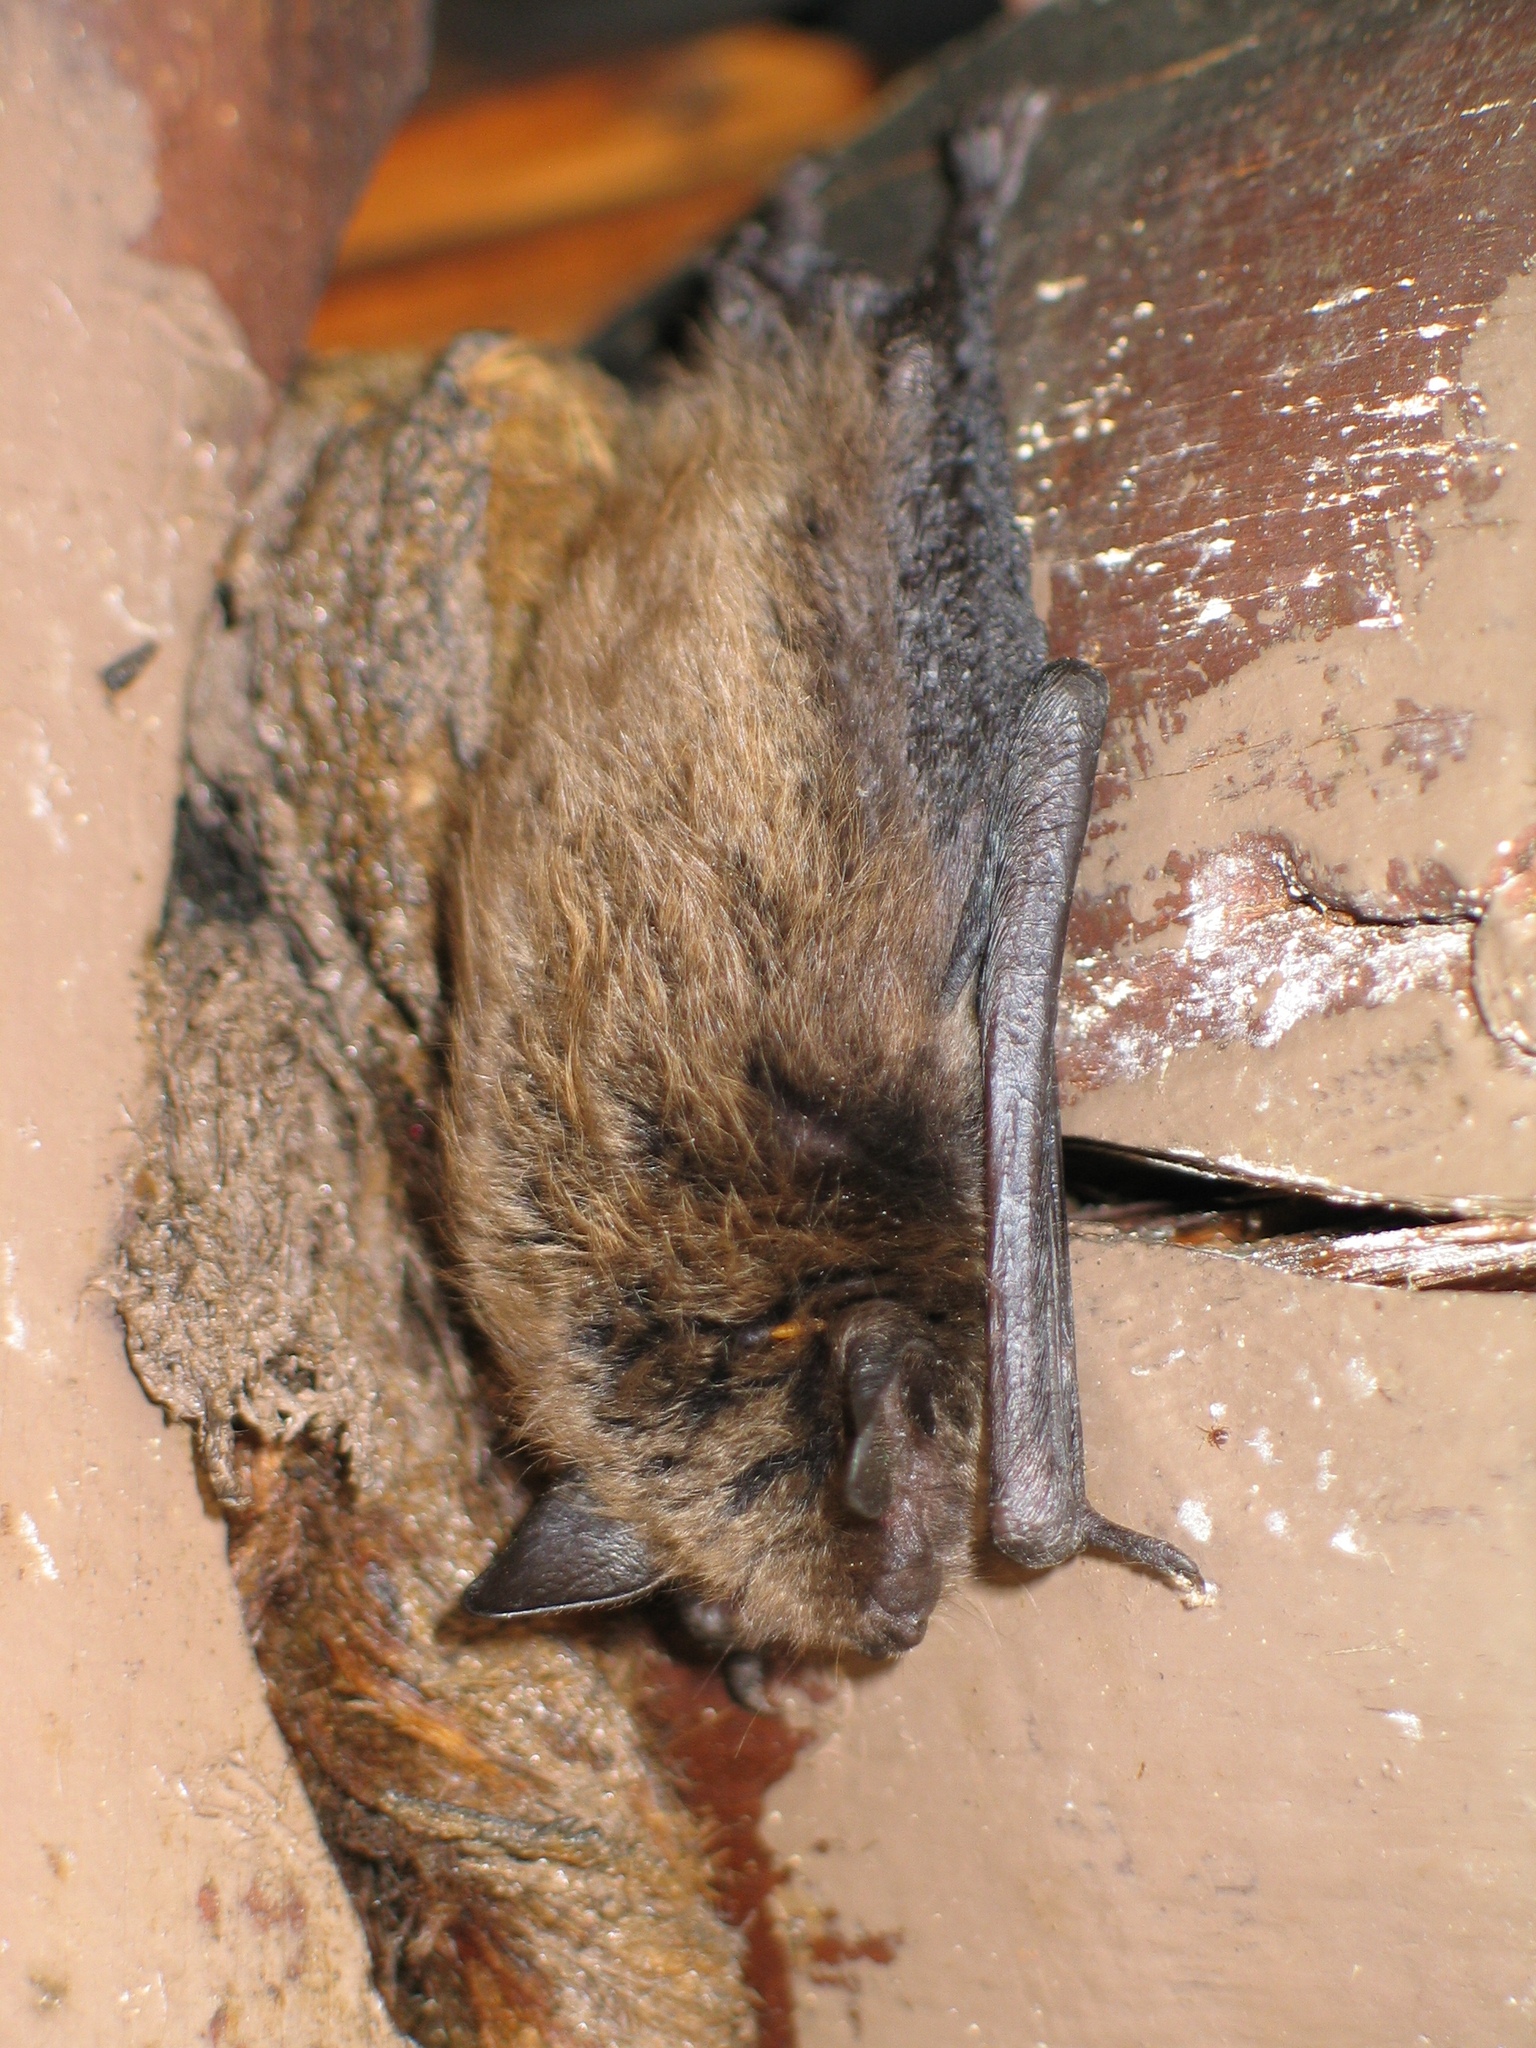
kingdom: Animalia
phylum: Chordata
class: Mammalia
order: Chiroptera
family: Vespertilionidae
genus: Myotis
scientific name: Myotis lucifugus
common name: Little brown bat
